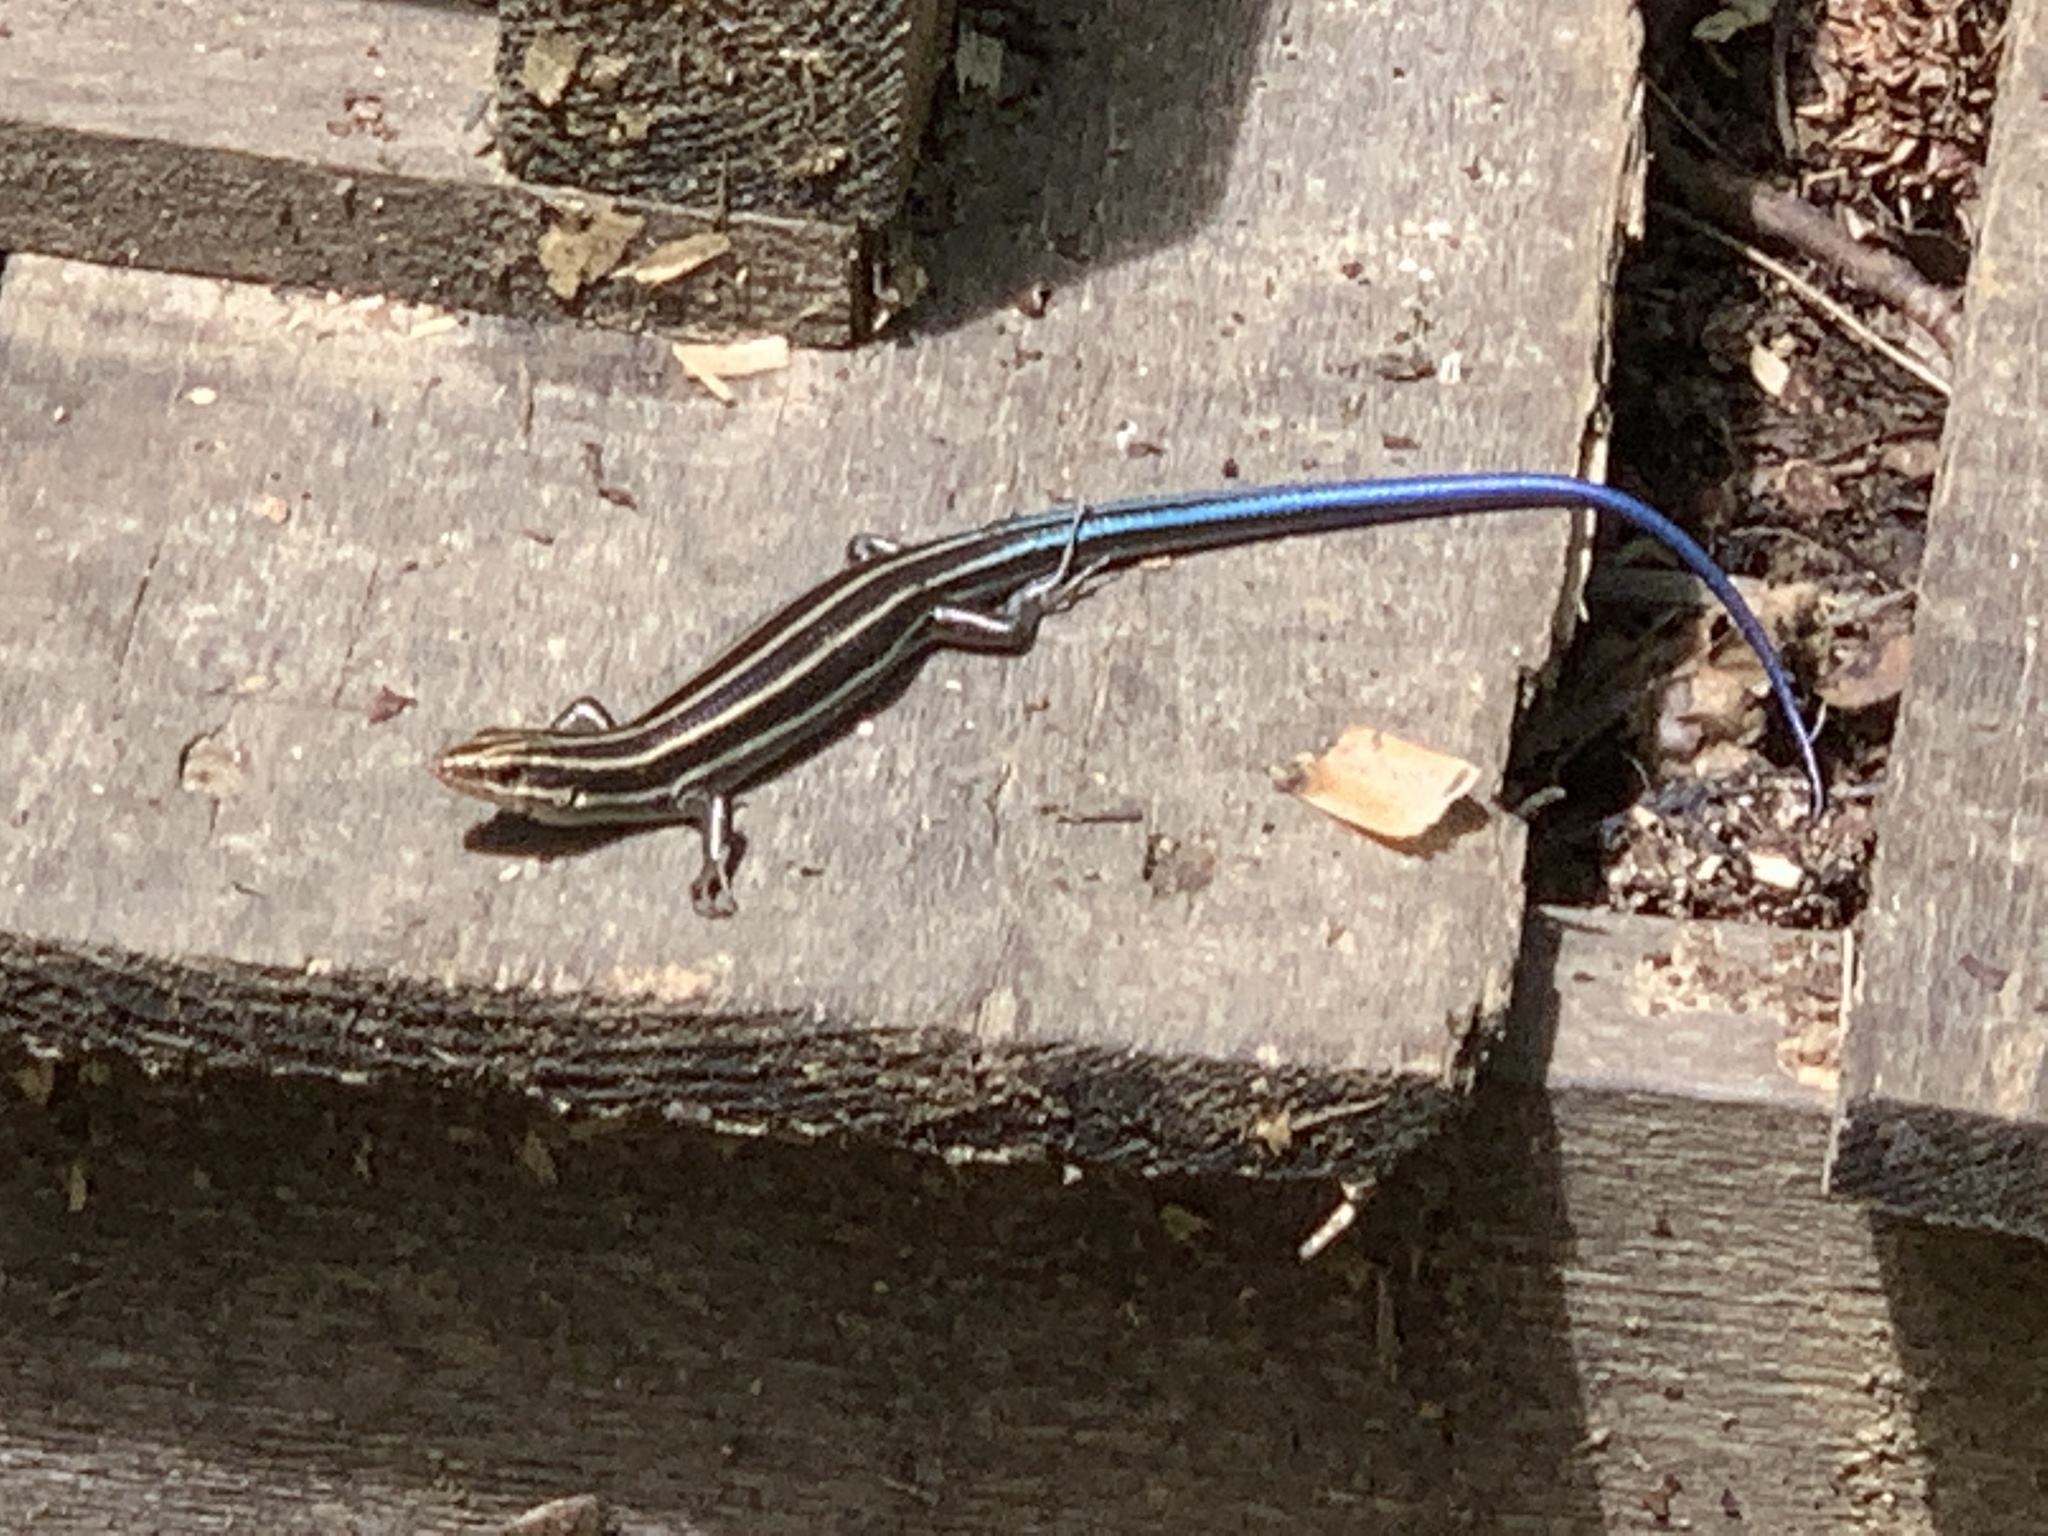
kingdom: Animalia
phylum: Chordata
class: Squamata
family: Scincidae
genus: Plestiodon
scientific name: Plestiodon fasciatus
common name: Five-lined skink
